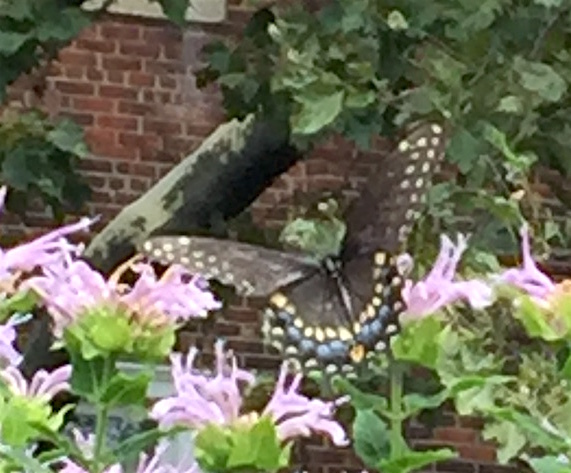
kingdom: Animalia
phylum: Arthropoda
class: Insecta
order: Lepidoptera
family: Papilionidae
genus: Papilio
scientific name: Papilio polyxenes
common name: Black swallowtail
